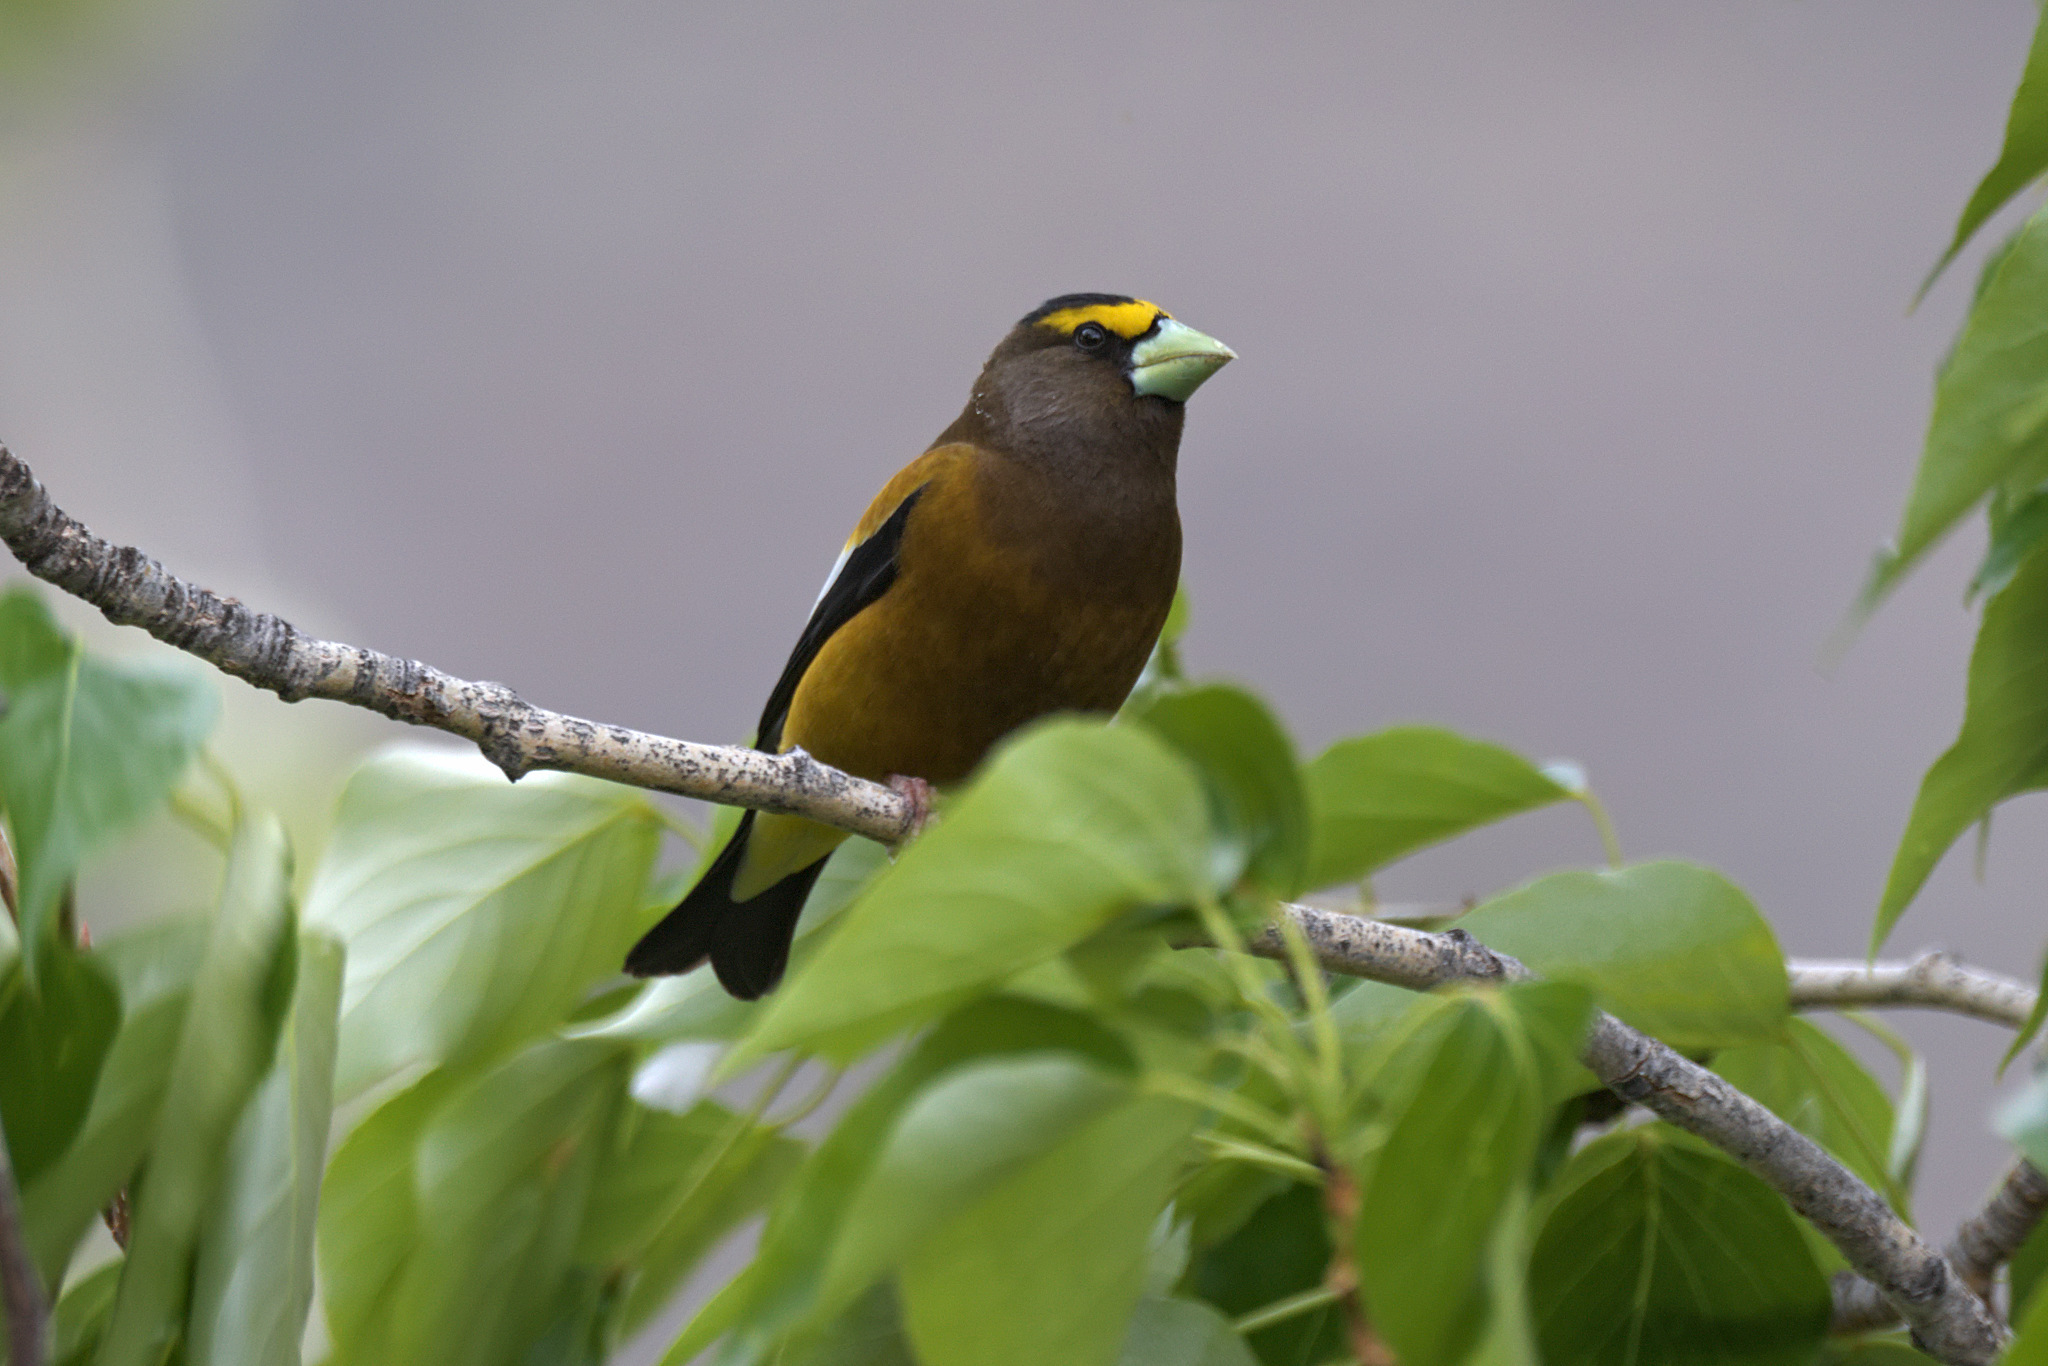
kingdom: Animalia
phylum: Chordata
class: Aves
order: Passeriformes
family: Fringillidae
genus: Hesperiphona
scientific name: Hesperiphona vespertina
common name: Evening grosbeak
